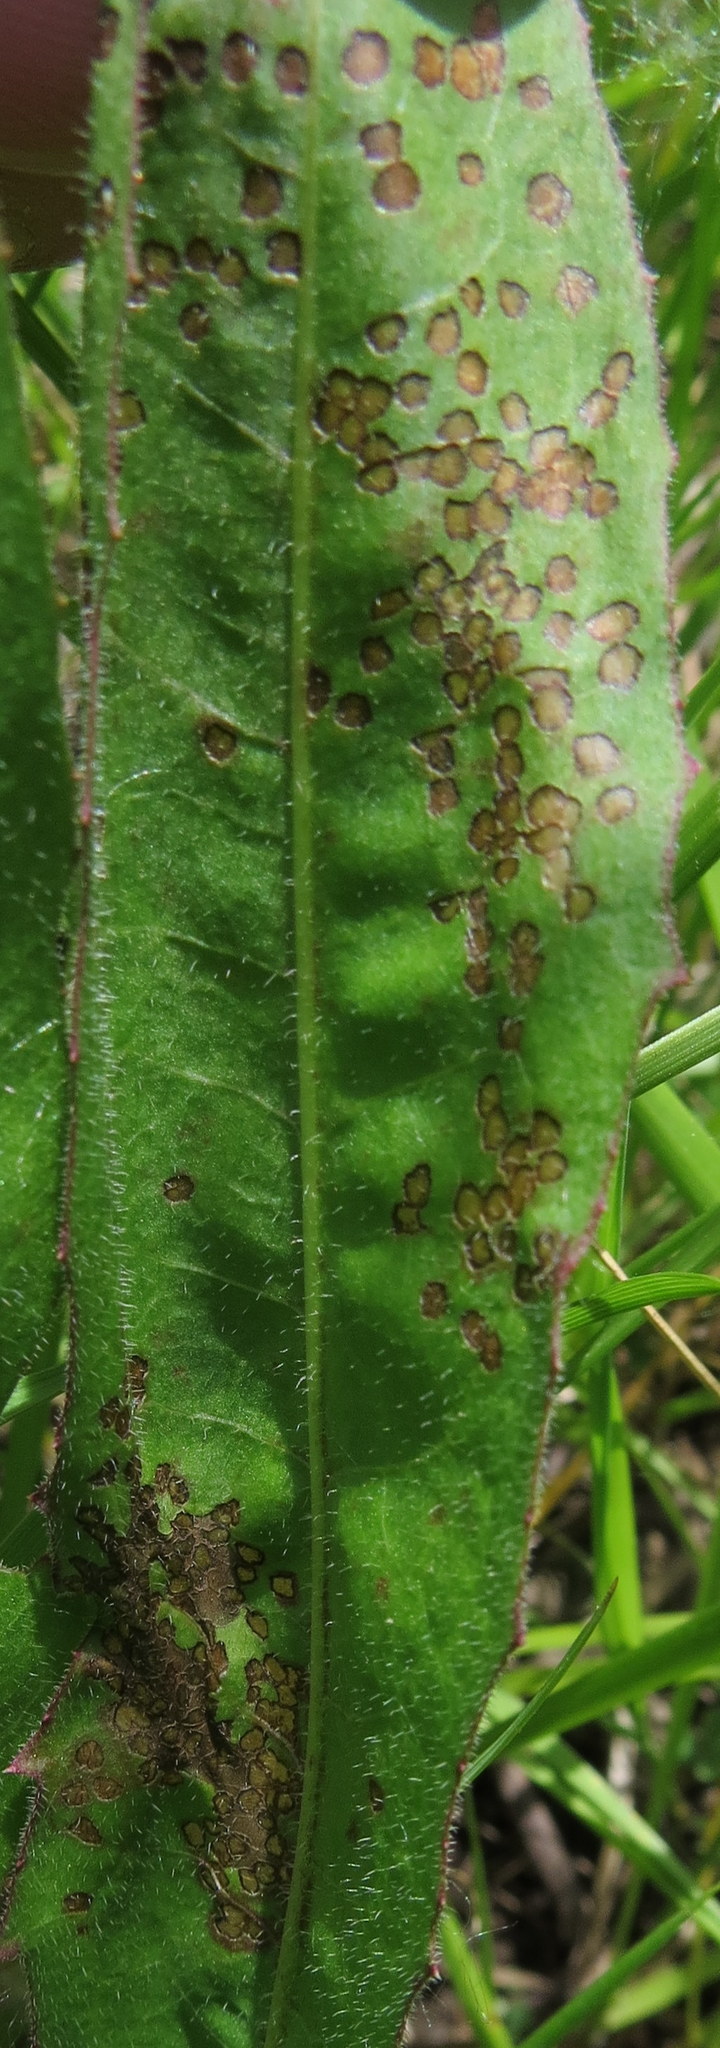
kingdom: Animalia
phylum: Arthropoda
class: Insecta
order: Hemiptera
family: Miridae
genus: Poecilocapsus
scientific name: Poecilocapsus lineatus
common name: Four-lined plant bug
